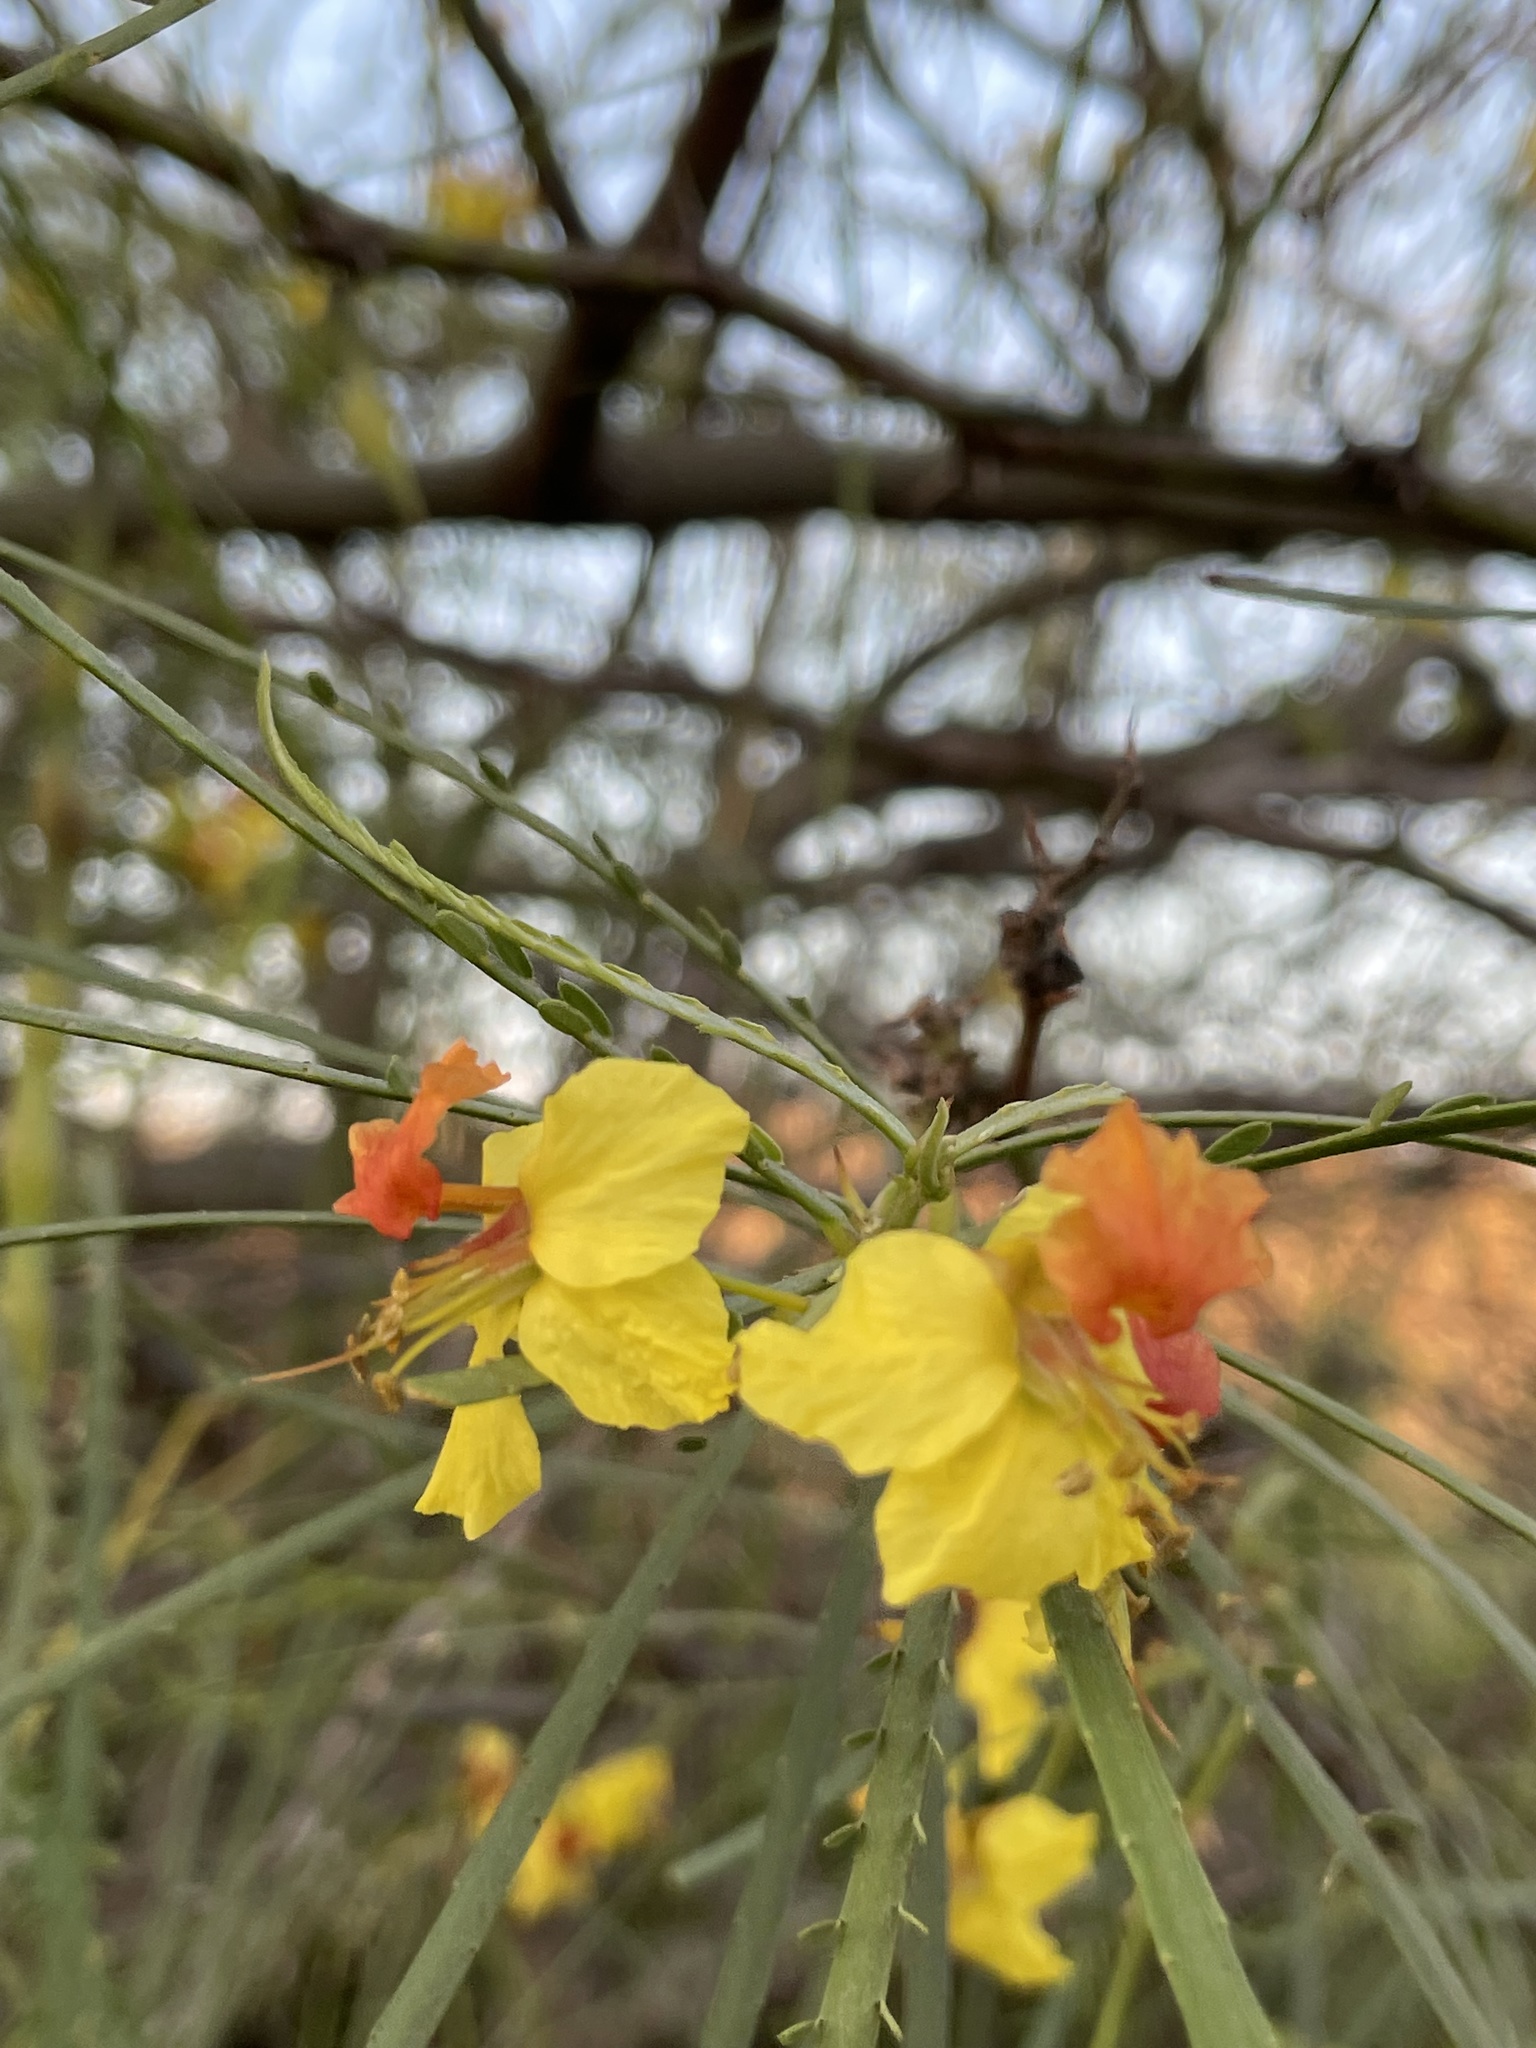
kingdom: Plantae
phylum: Tracheophyta
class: Magnoliopsida
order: Fabales
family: Fabaceae
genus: Parkinsonia
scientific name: Parkinsonia aculeata
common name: Jerusalem thorn
